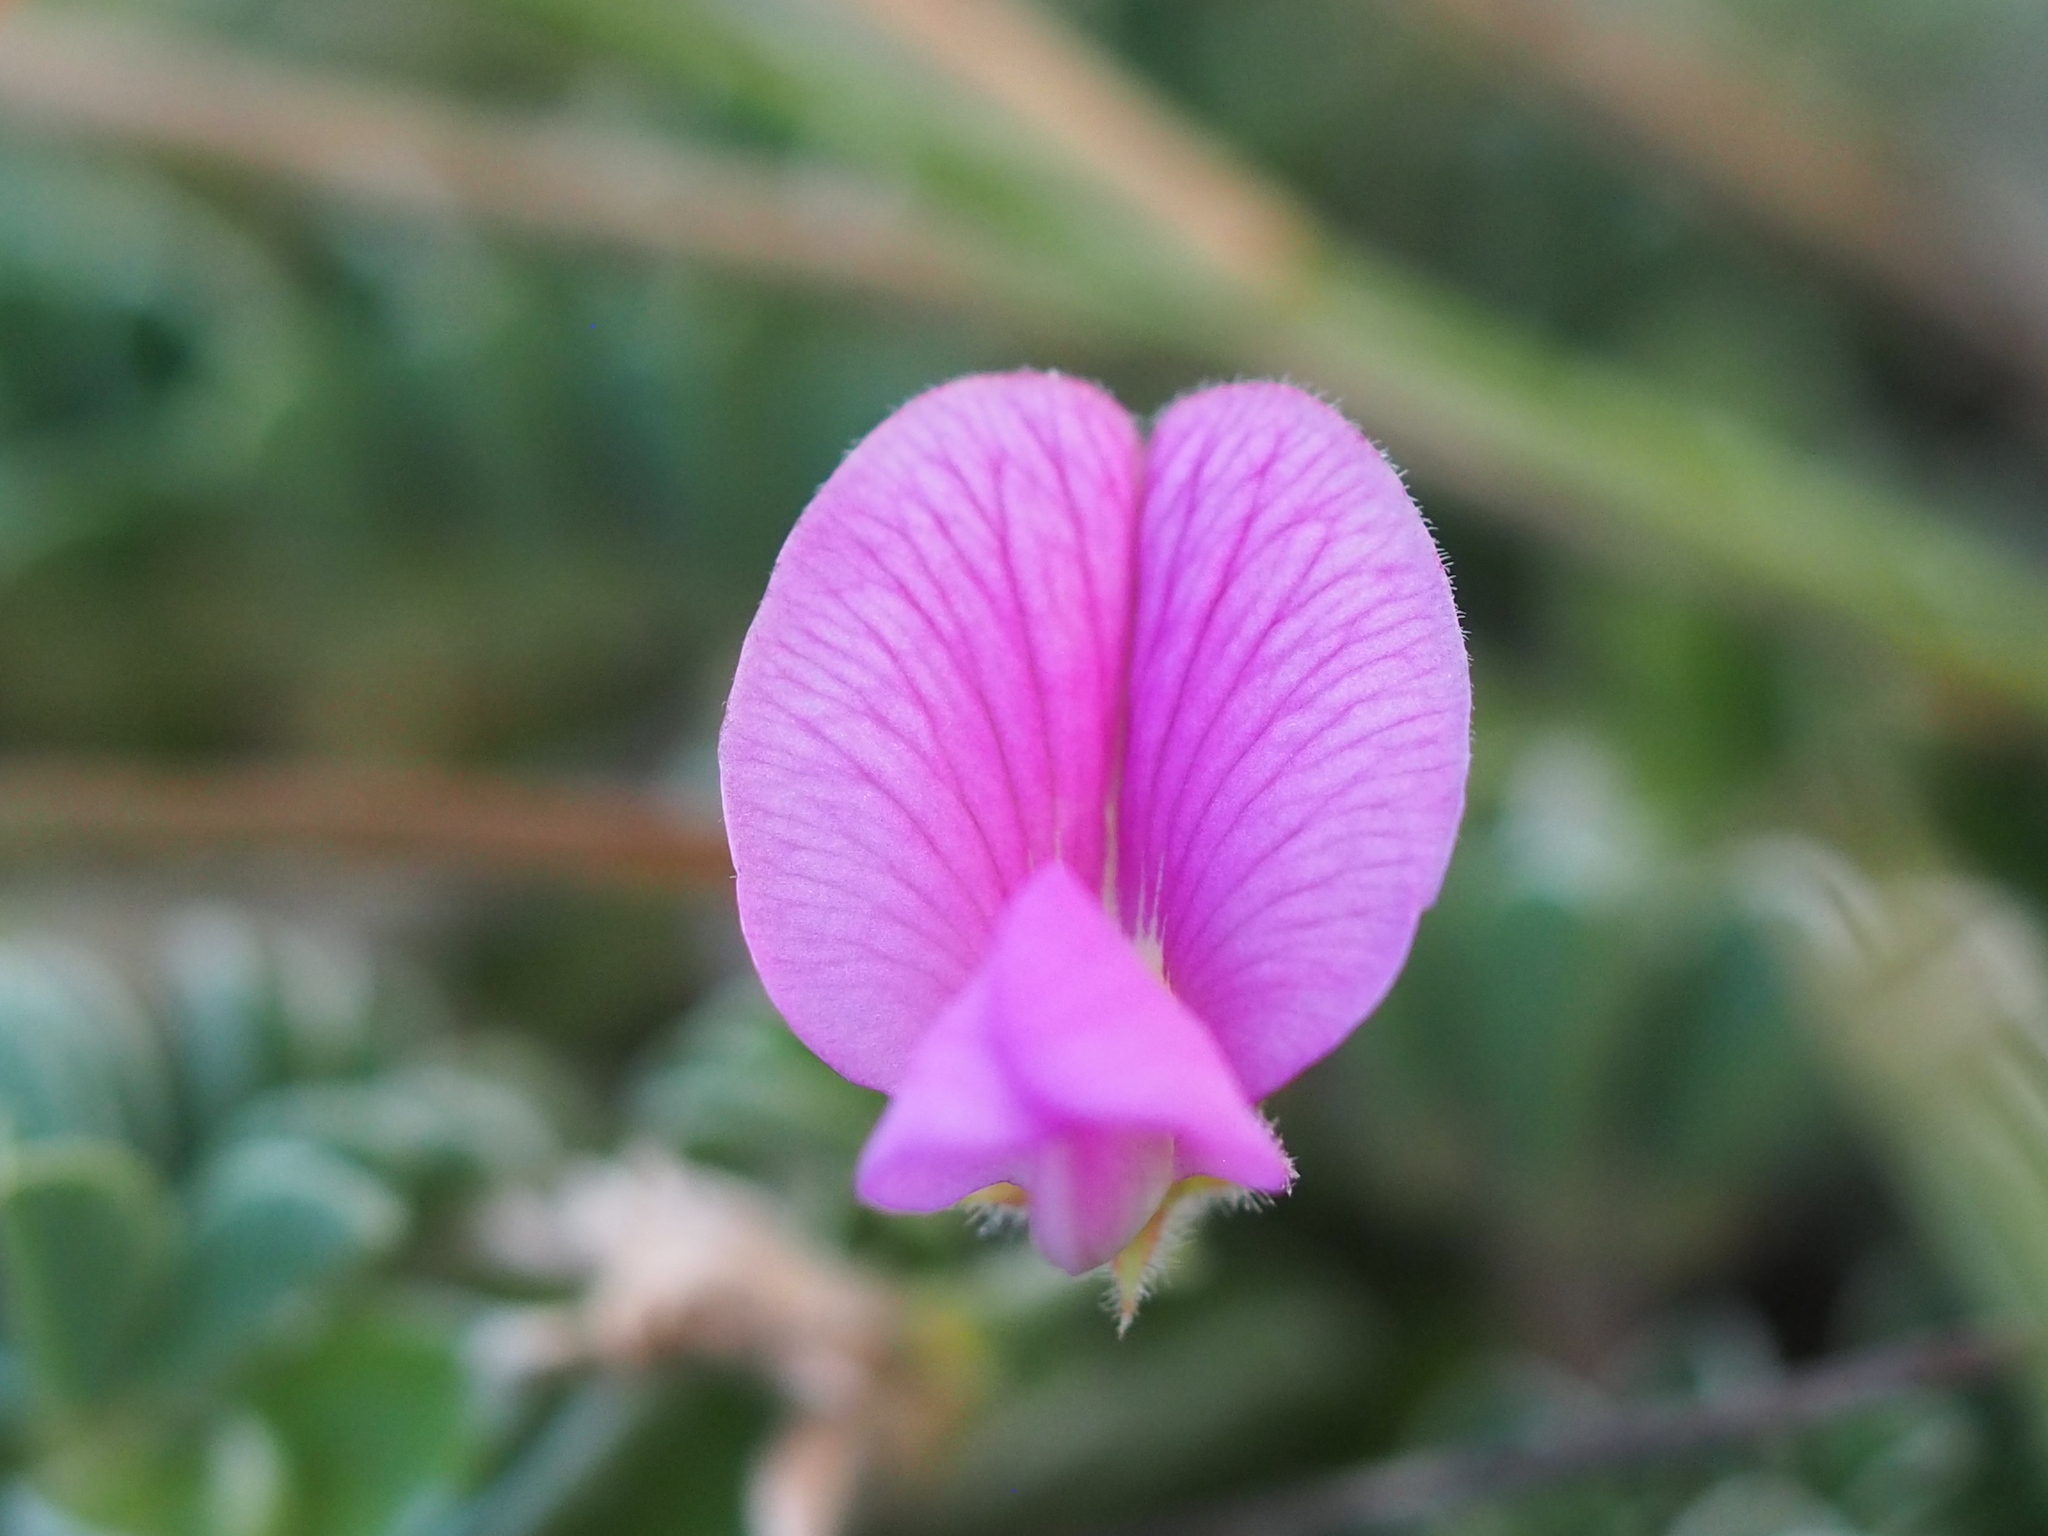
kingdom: Plantae
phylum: Tracheophyta
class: Magnoliopsida
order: Fabales
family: Fabaceae
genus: Tephrosia
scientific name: Tephrosia obovata
